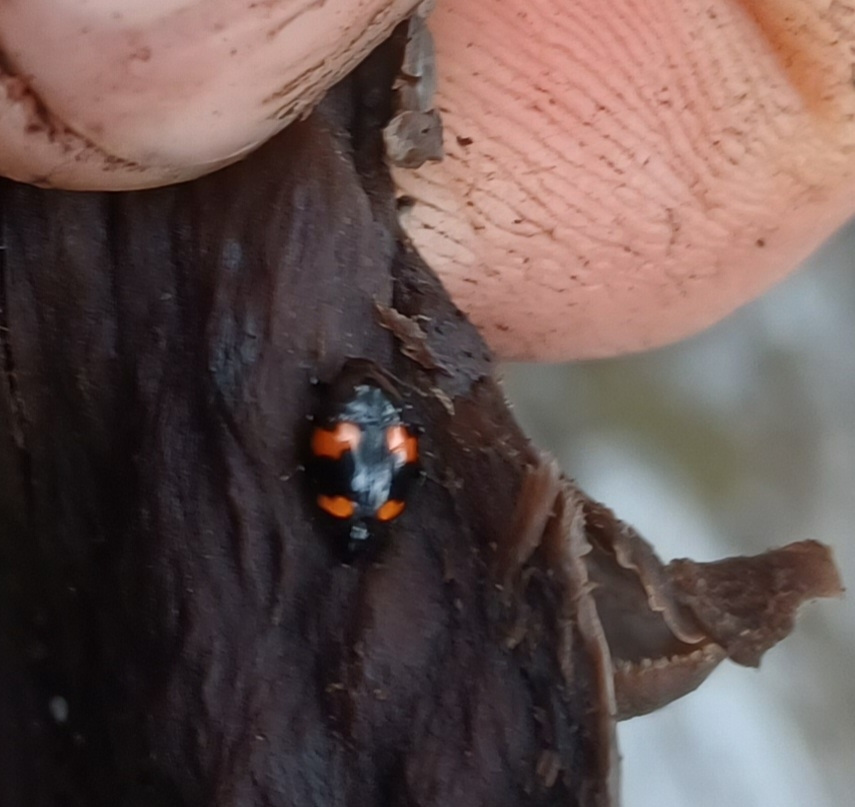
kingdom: Animalia
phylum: Arthropoda
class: Insecta
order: Coleoptera
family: Staphylinidae
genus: Scaphidium
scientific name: Scaphidium quadrimaculatum
